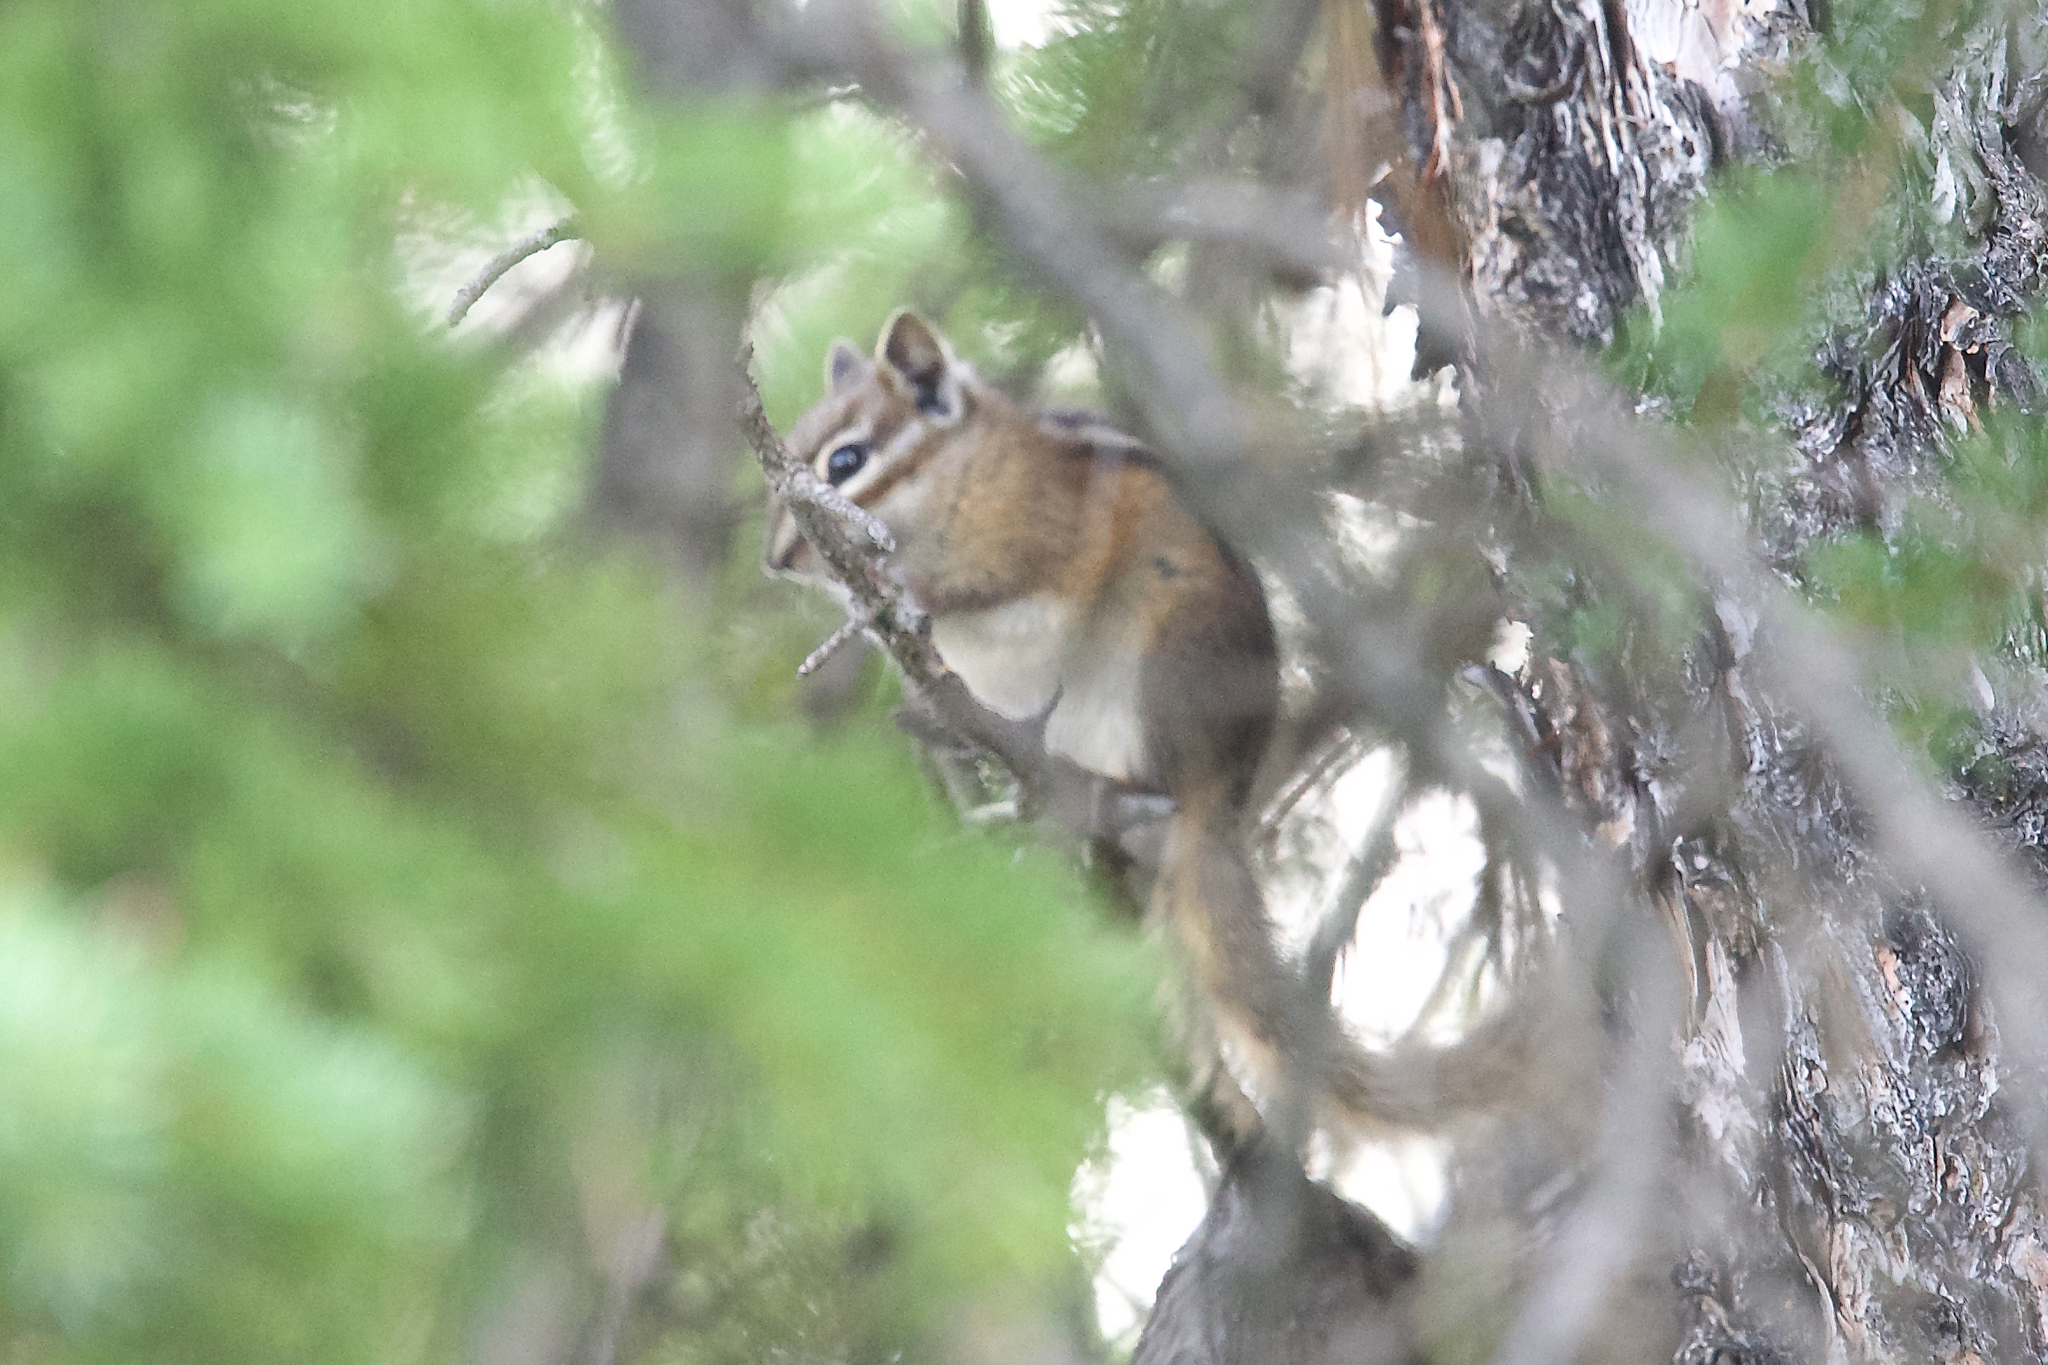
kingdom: Animalia
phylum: Chordata
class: Mammalia
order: Rodentia
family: Sciuridae
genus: Tamias
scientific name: Tamias minimus
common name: Least chipmunk
